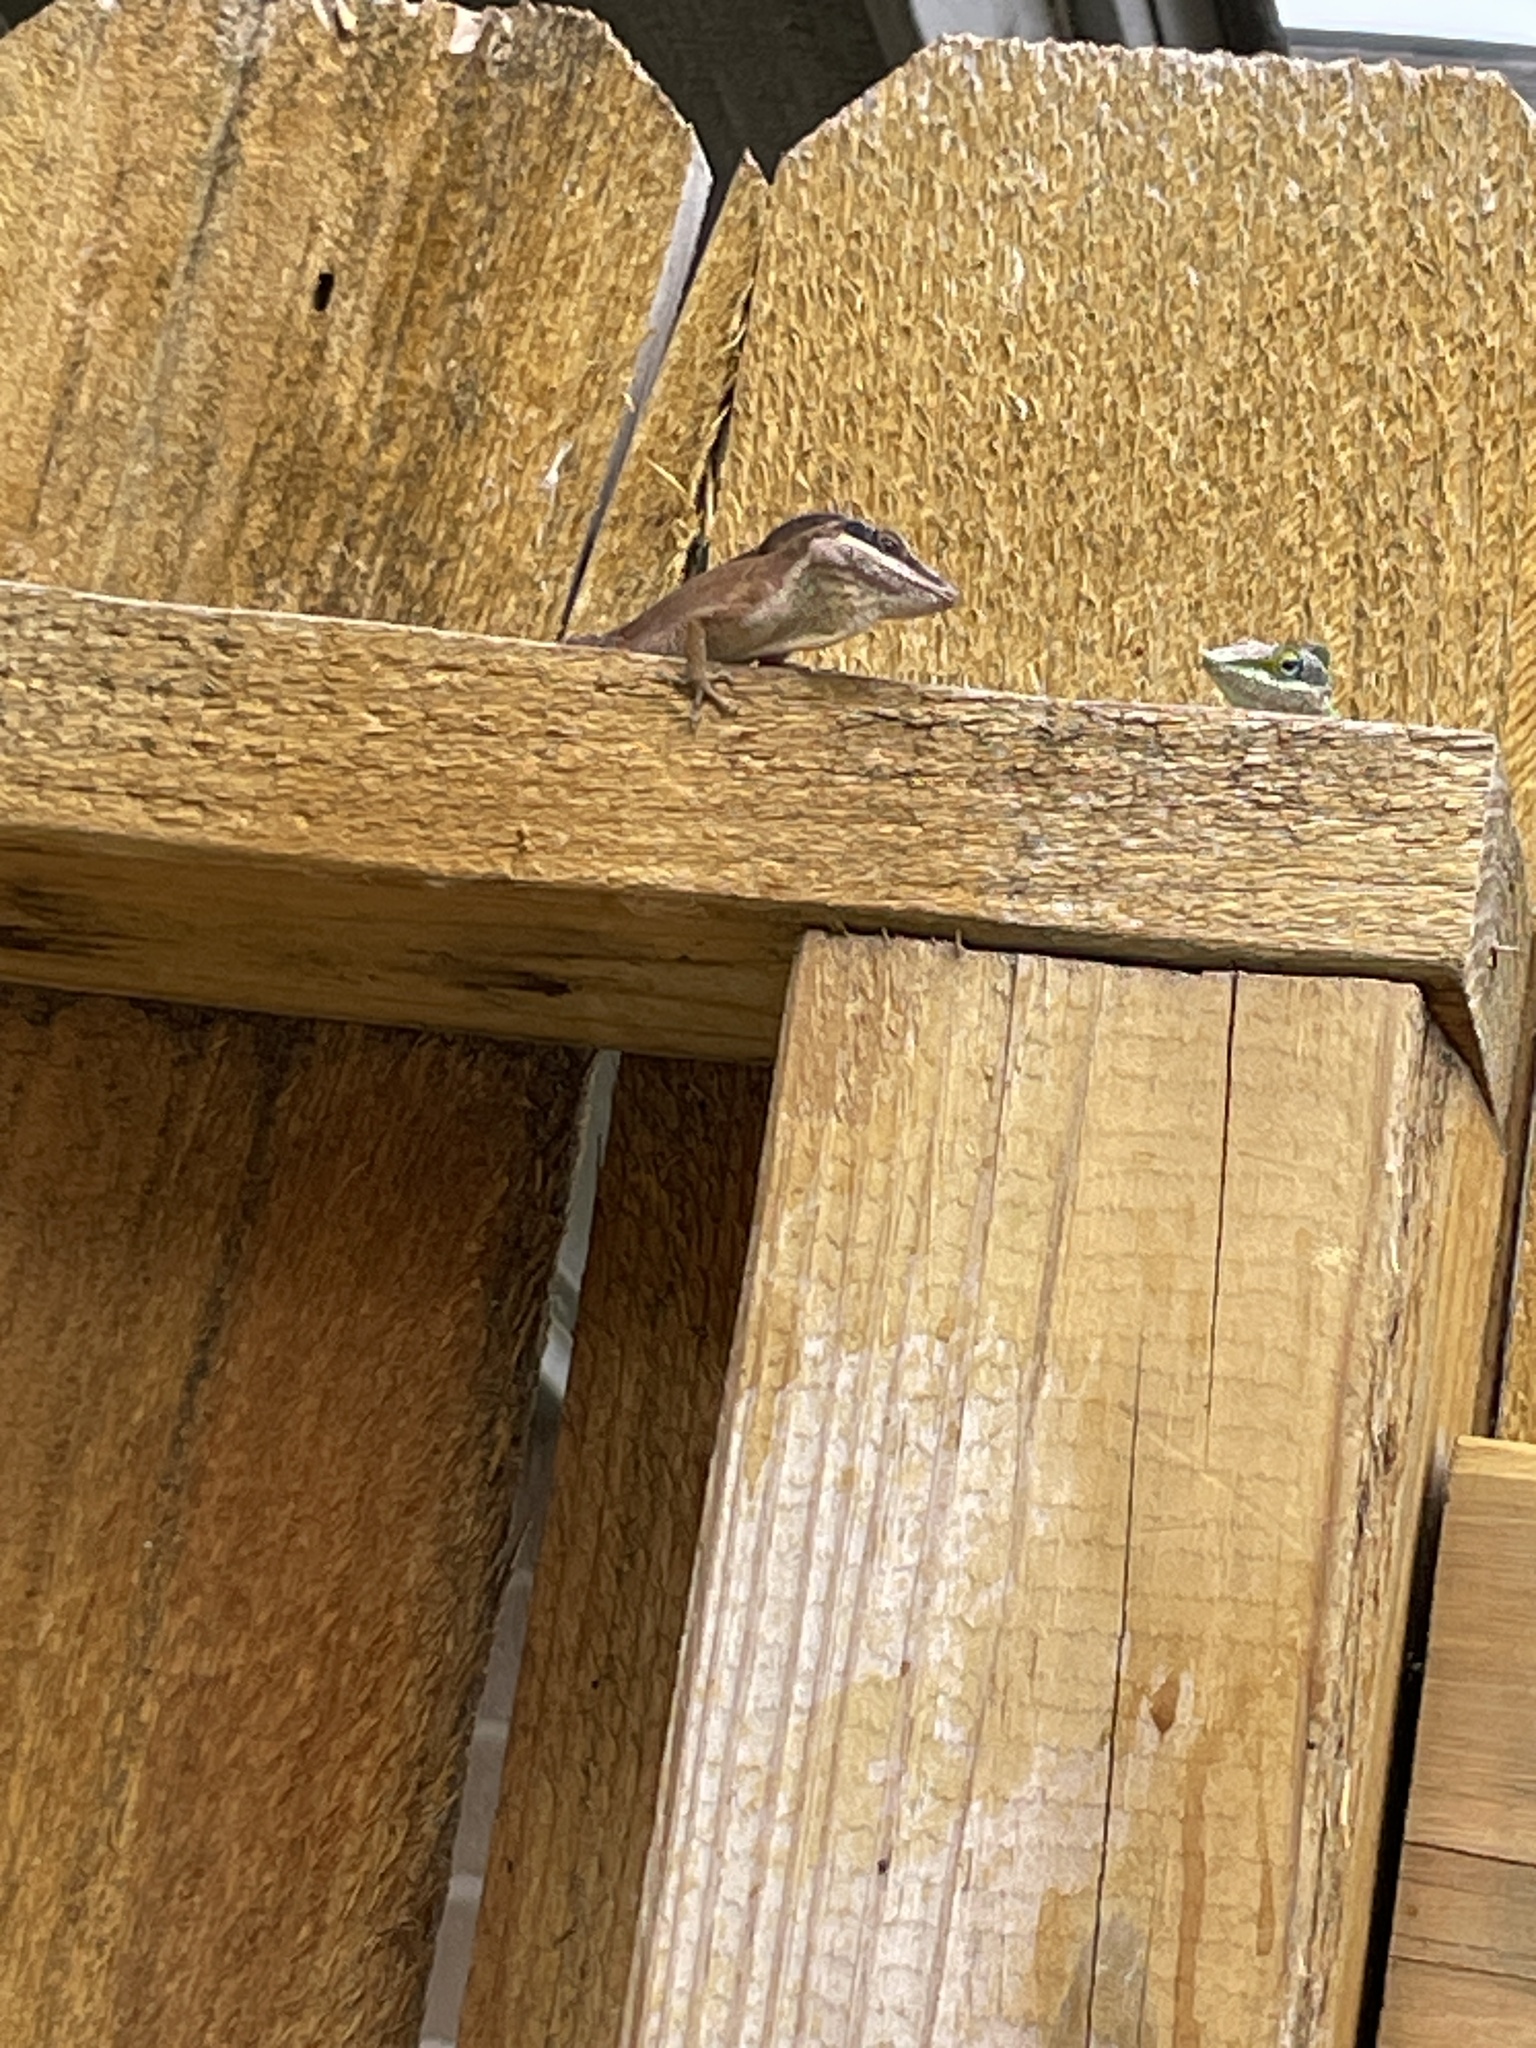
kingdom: Animalia
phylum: Chordata
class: Squamata
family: Dactyloidae
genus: Anolis
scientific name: Anolis carolinensis
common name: Green anole
